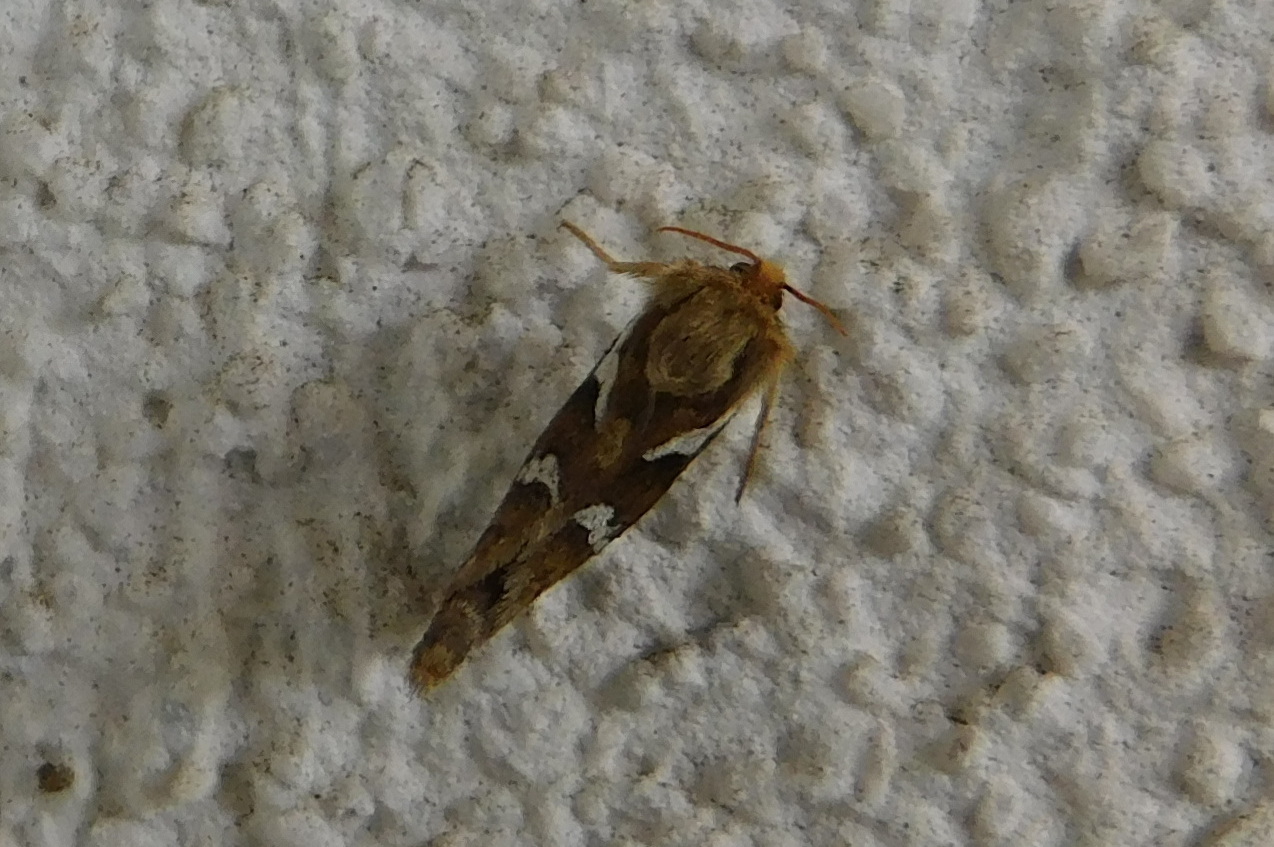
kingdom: Animalia
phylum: Arthropoda
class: Insecta
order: Lepidoptera
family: Hepialidae
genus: Korscheltellus
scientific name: Korscheltellus lupulina
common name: Common swift
